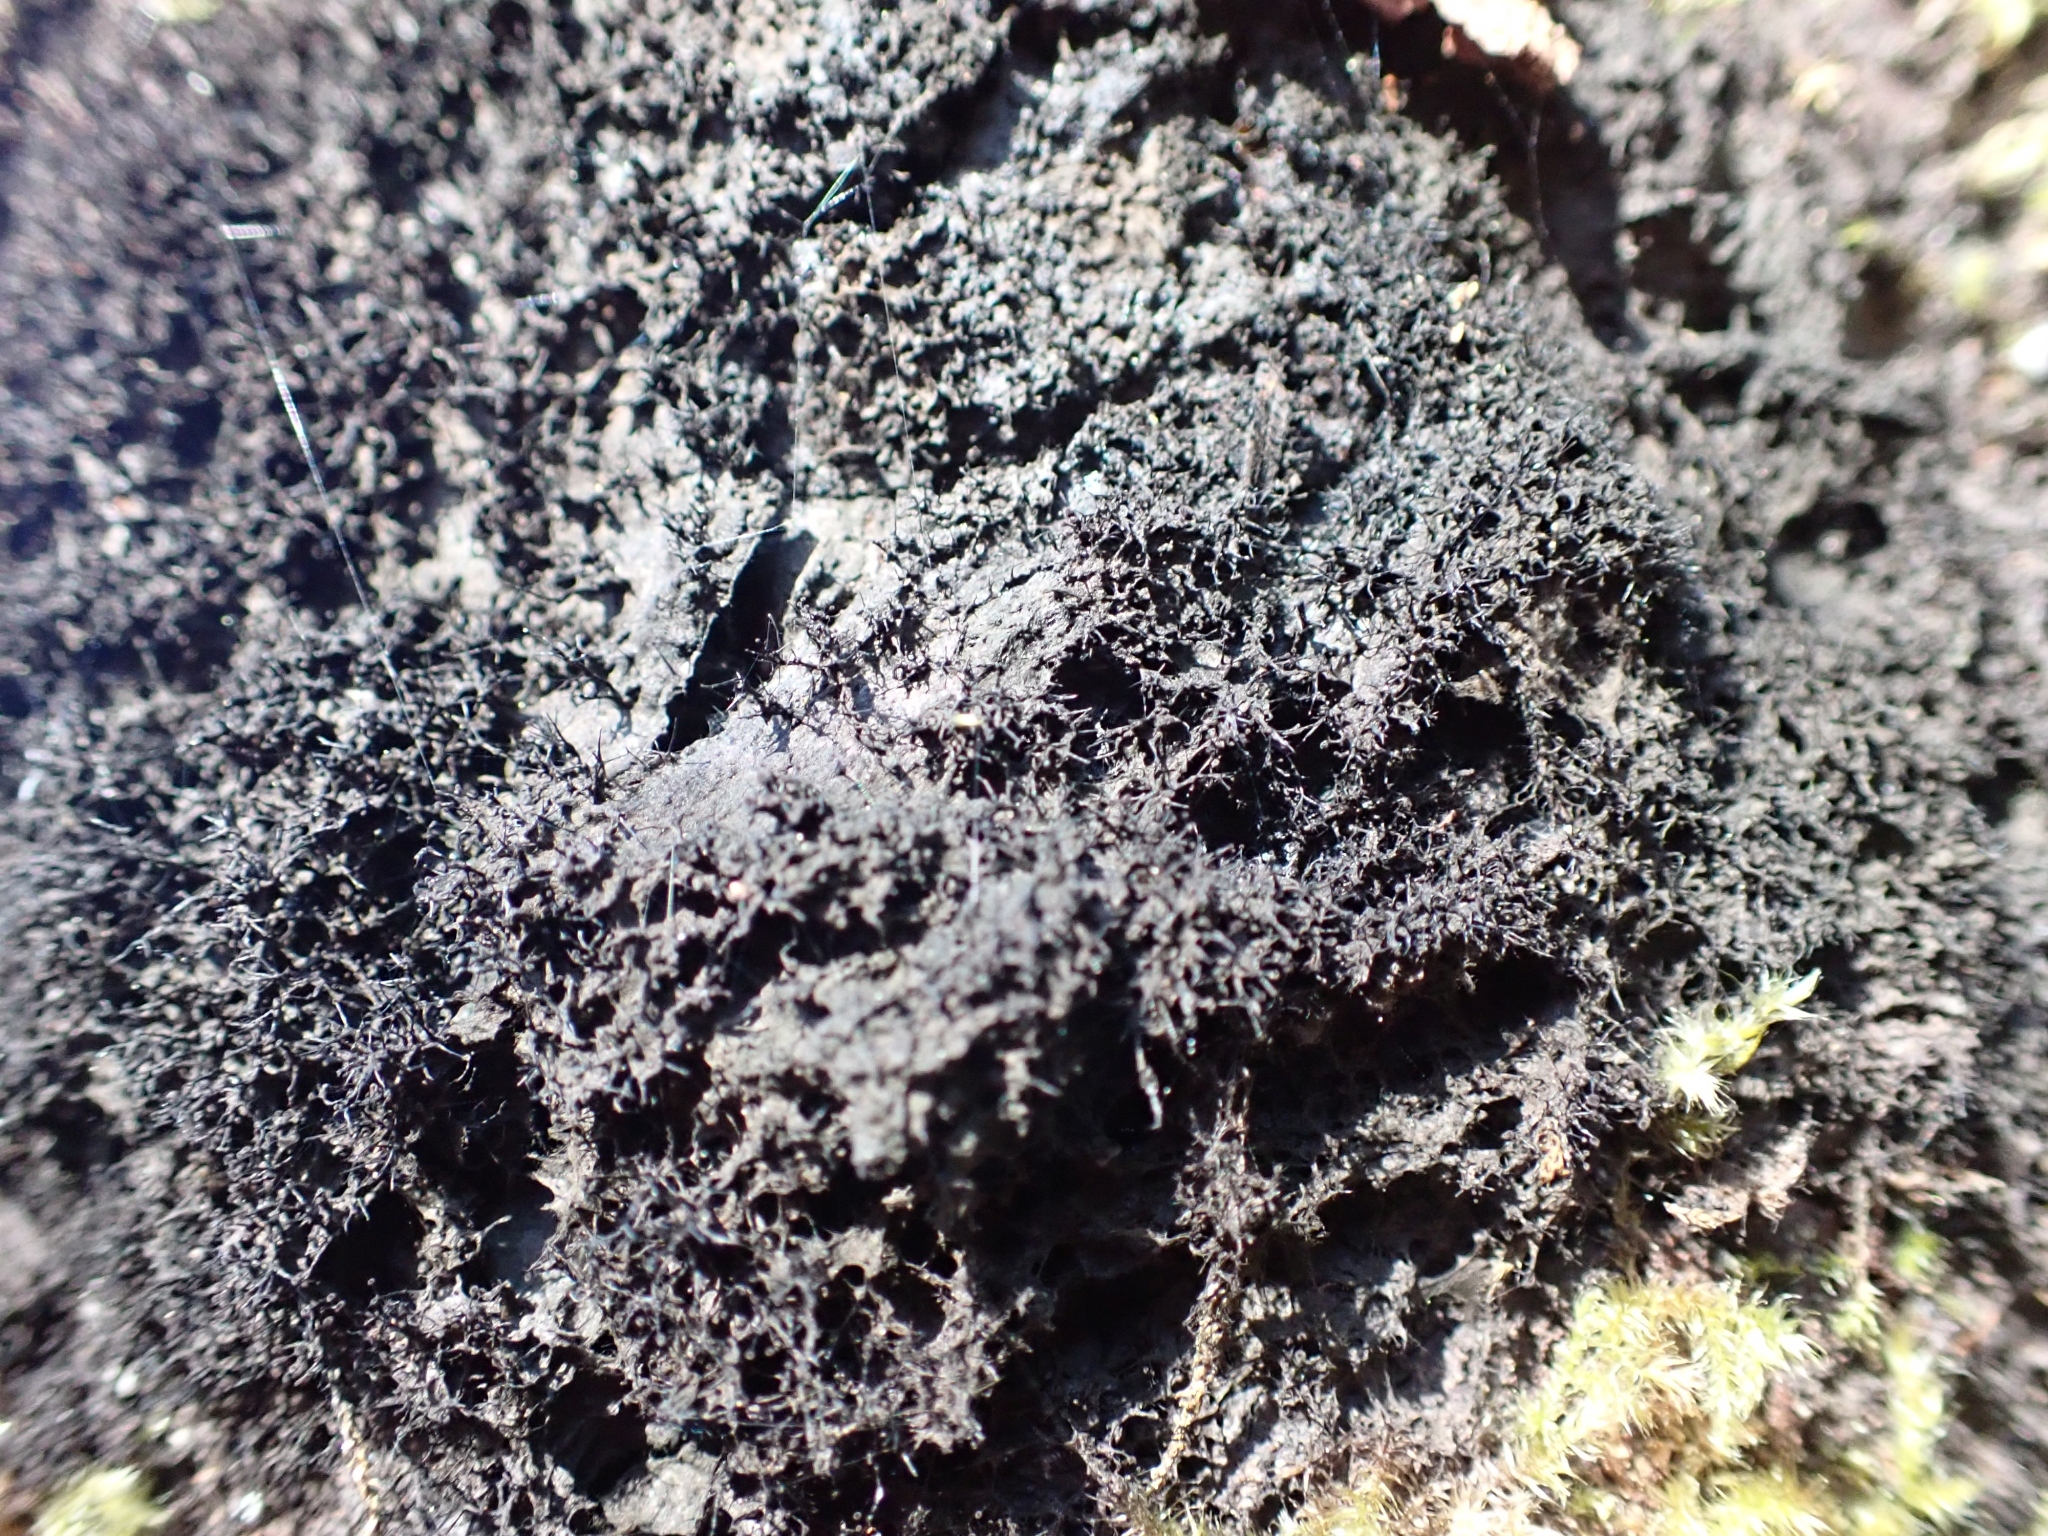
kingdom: Fungi
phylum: Ascomycota
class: Leotiomycetes
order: Helotiales
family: Amorphothecaceae
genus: Sorocybe
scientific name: Sorocybe resinae
